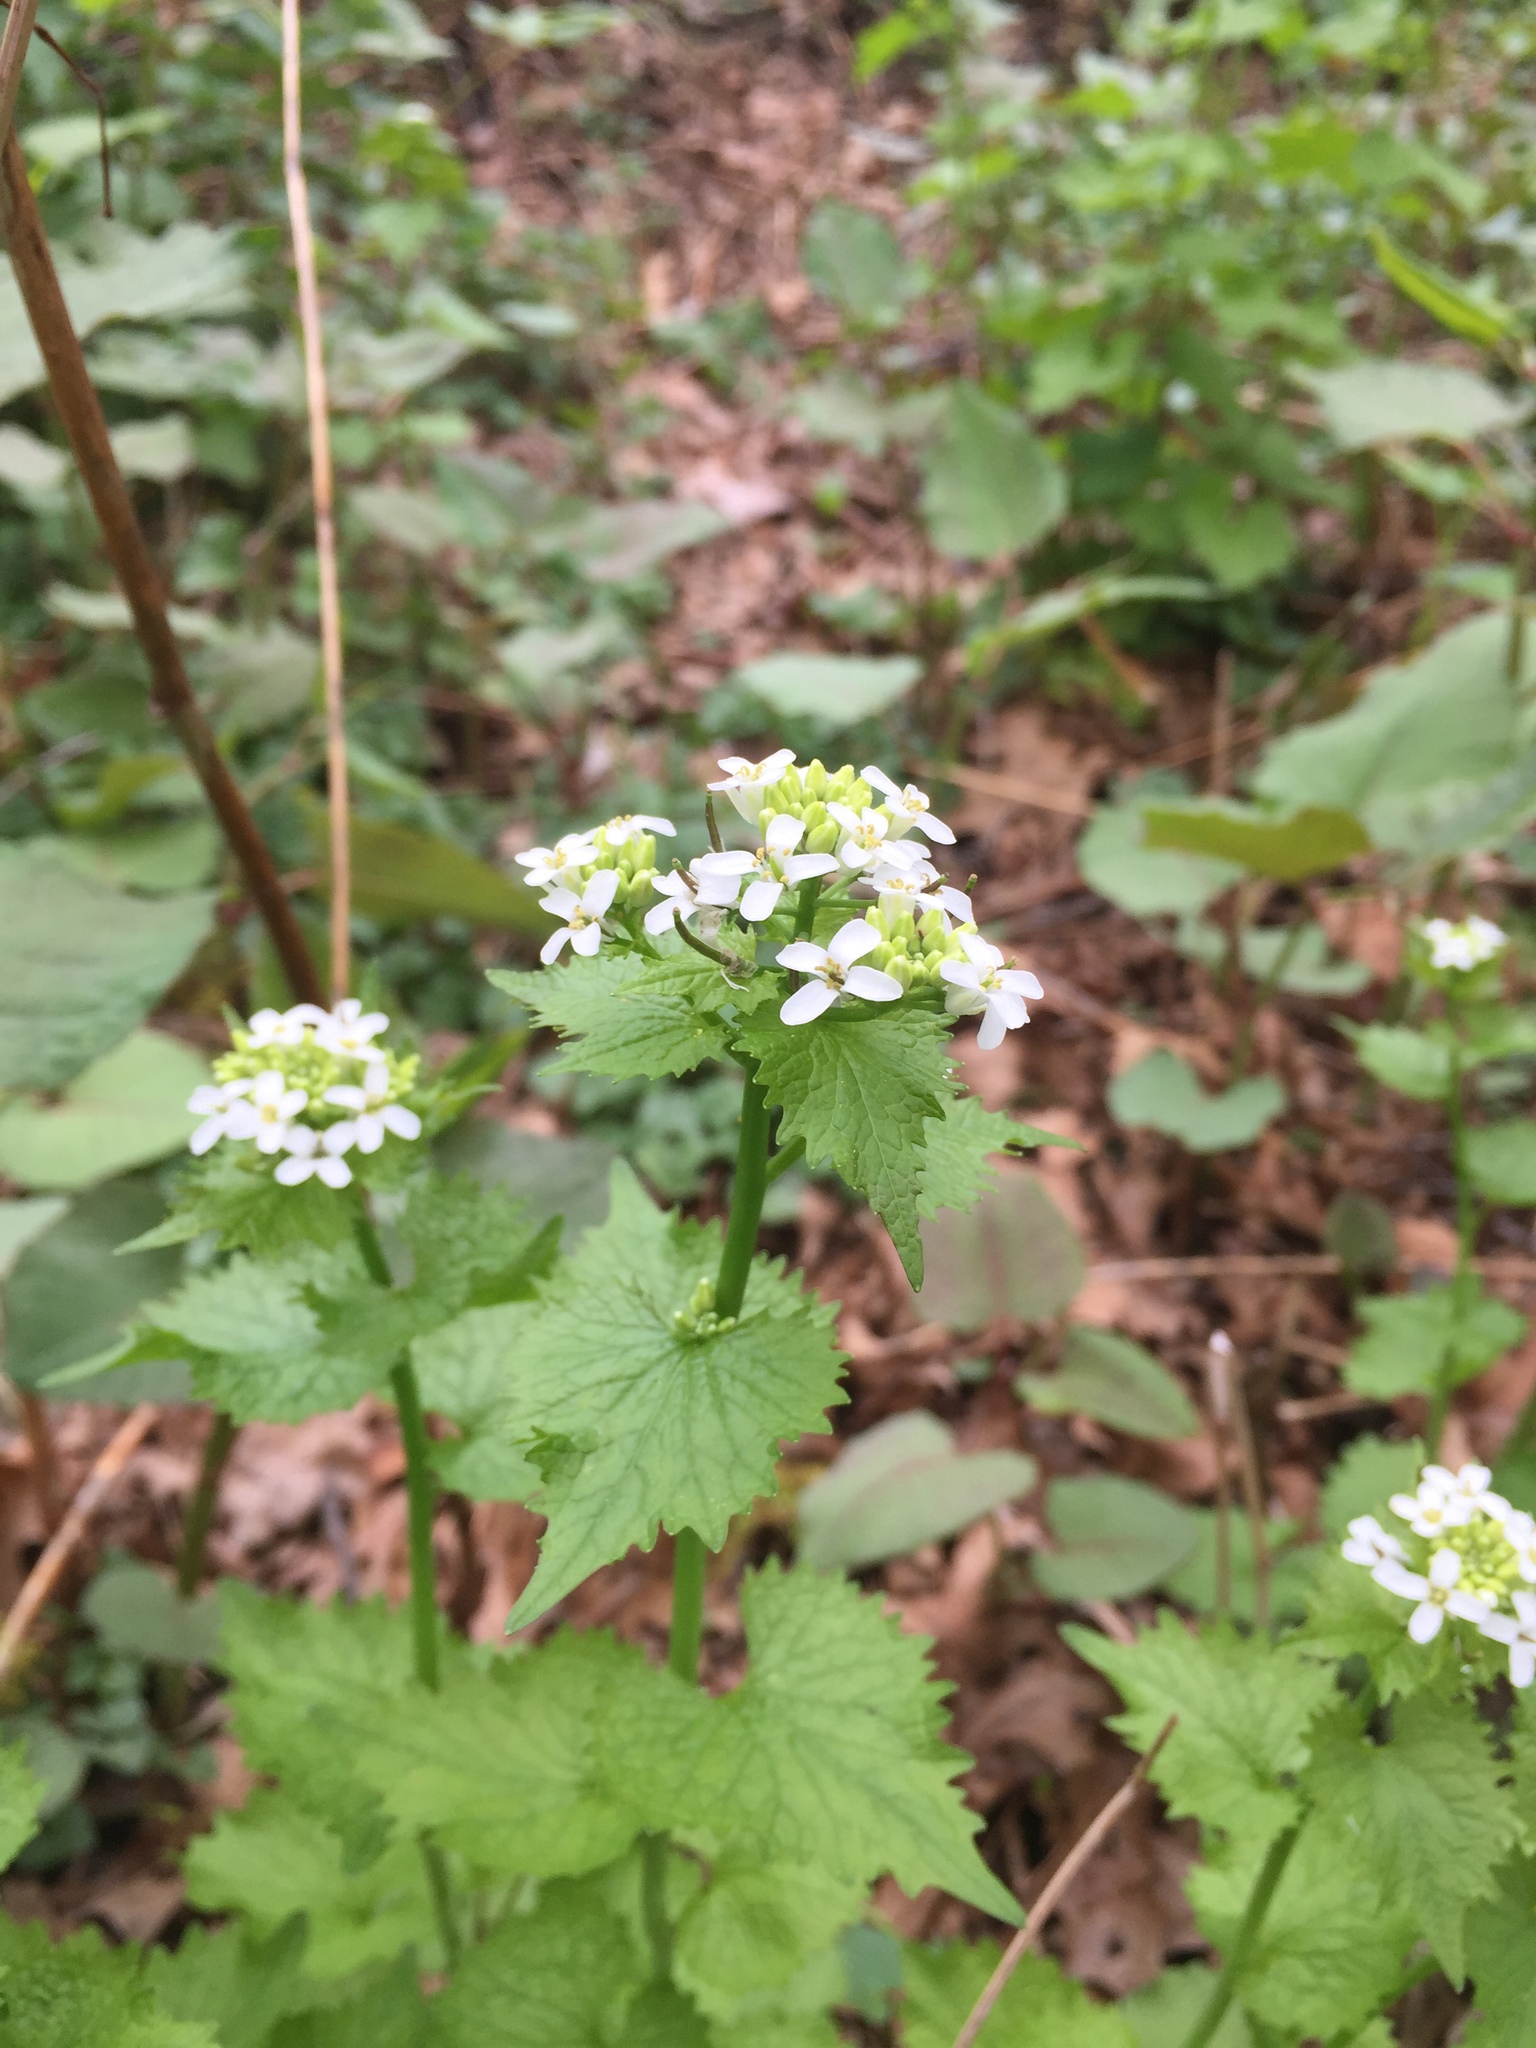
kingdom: Plantae
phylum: Tracheophyta
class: Magnoliopsida
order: Brassicales
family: Brassicaceae
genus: Alliaria
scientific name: Alliaria petiolata
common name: Garlic mustard
